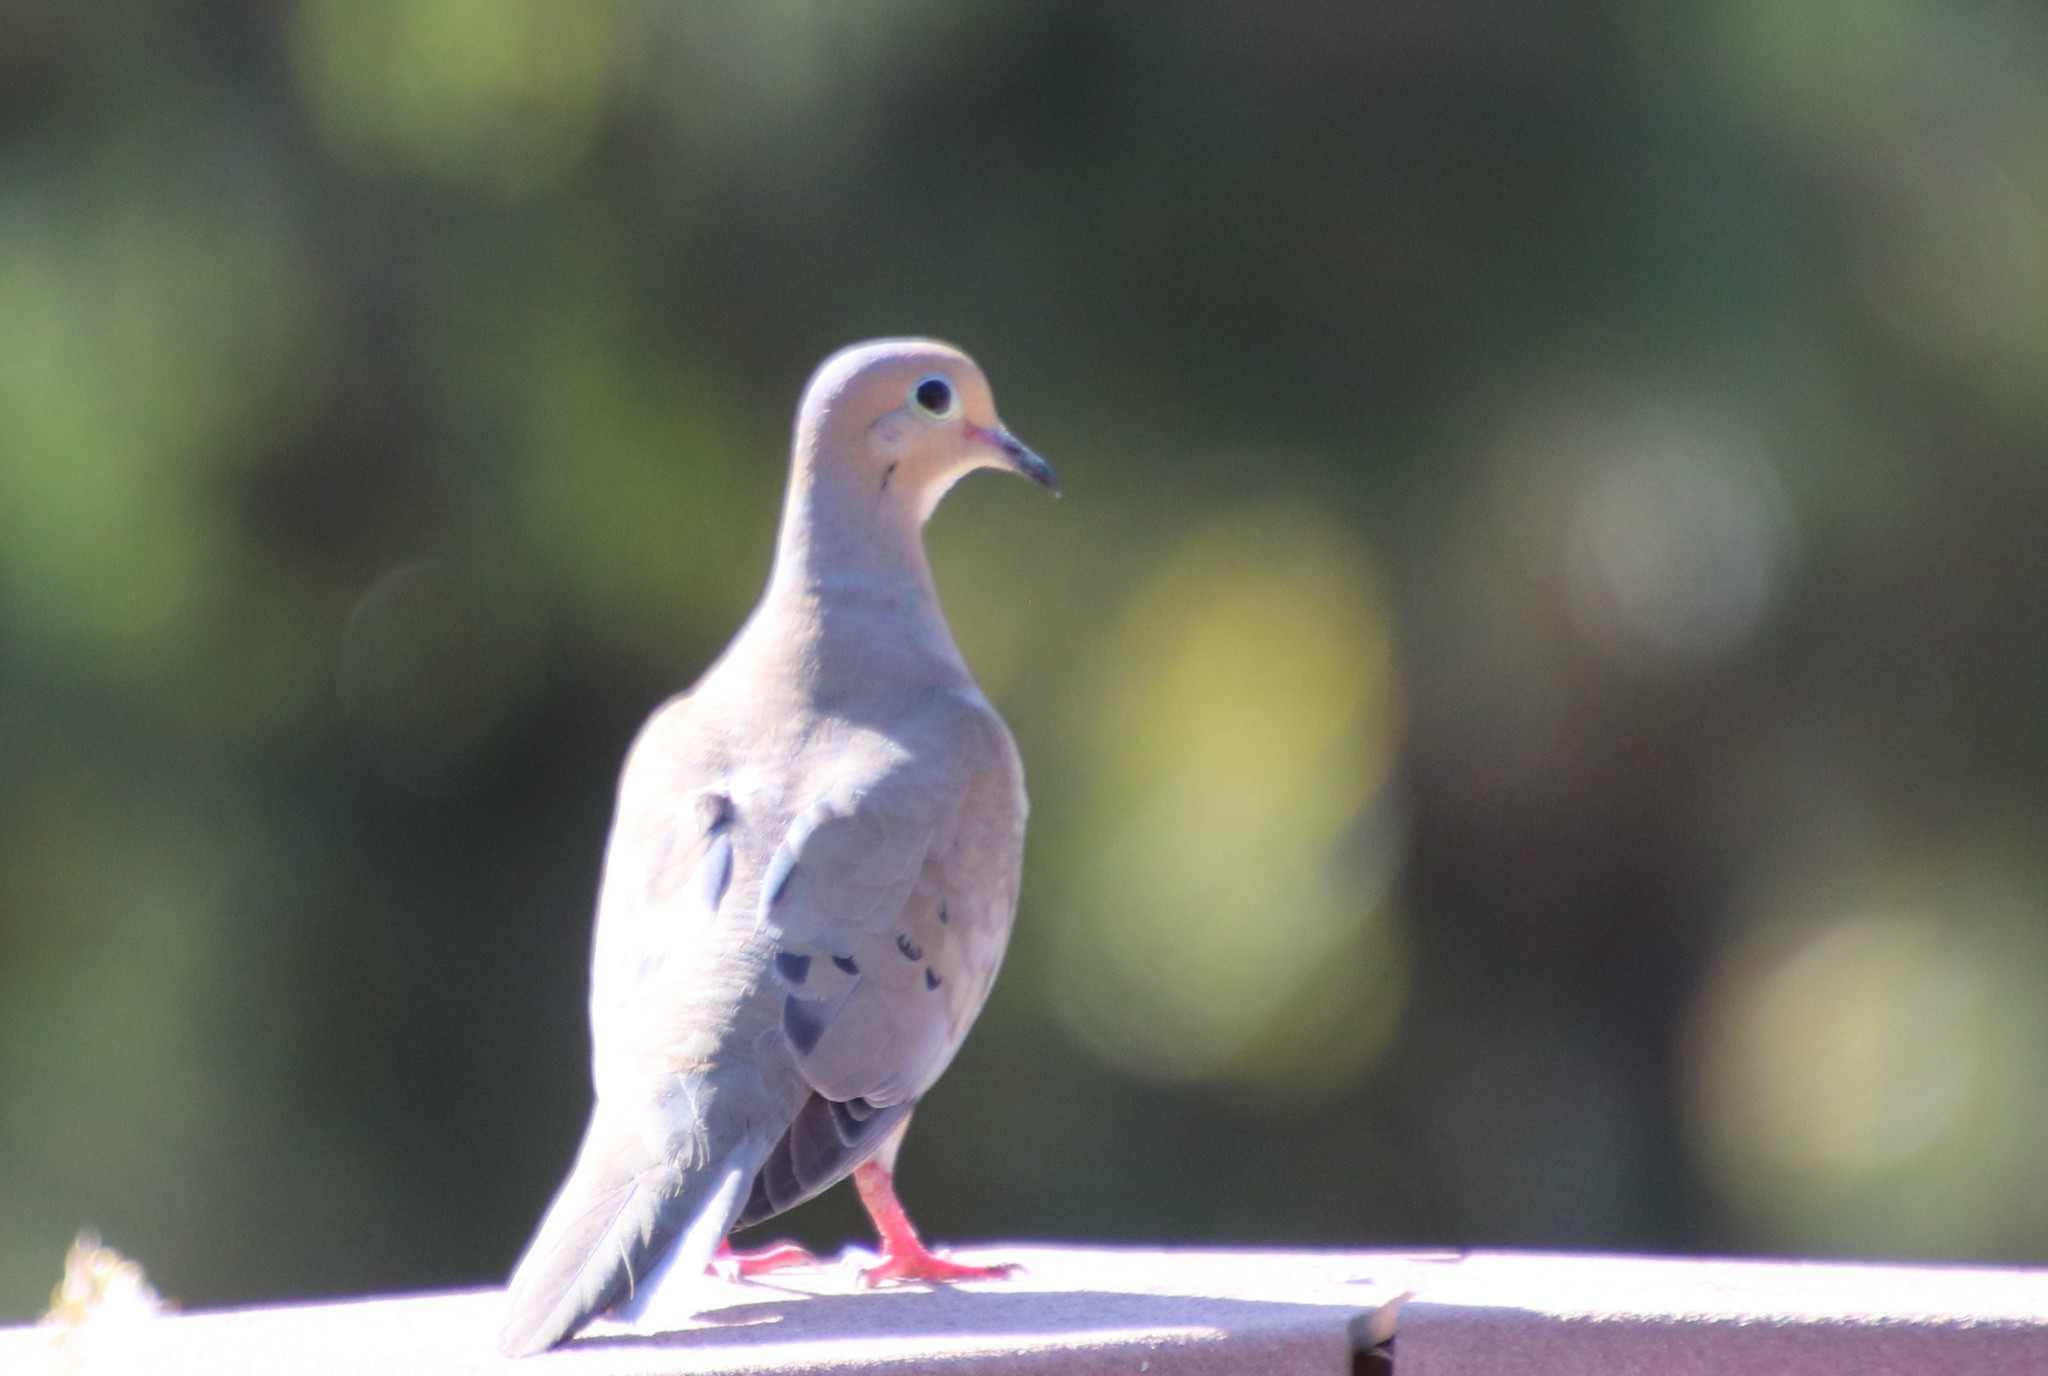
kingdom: Animalia
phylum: Chordata
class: Aves
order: Columbiformes
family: Columbidae
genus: Zenaida
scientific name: Zenaida macroura
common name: Mourning dove
